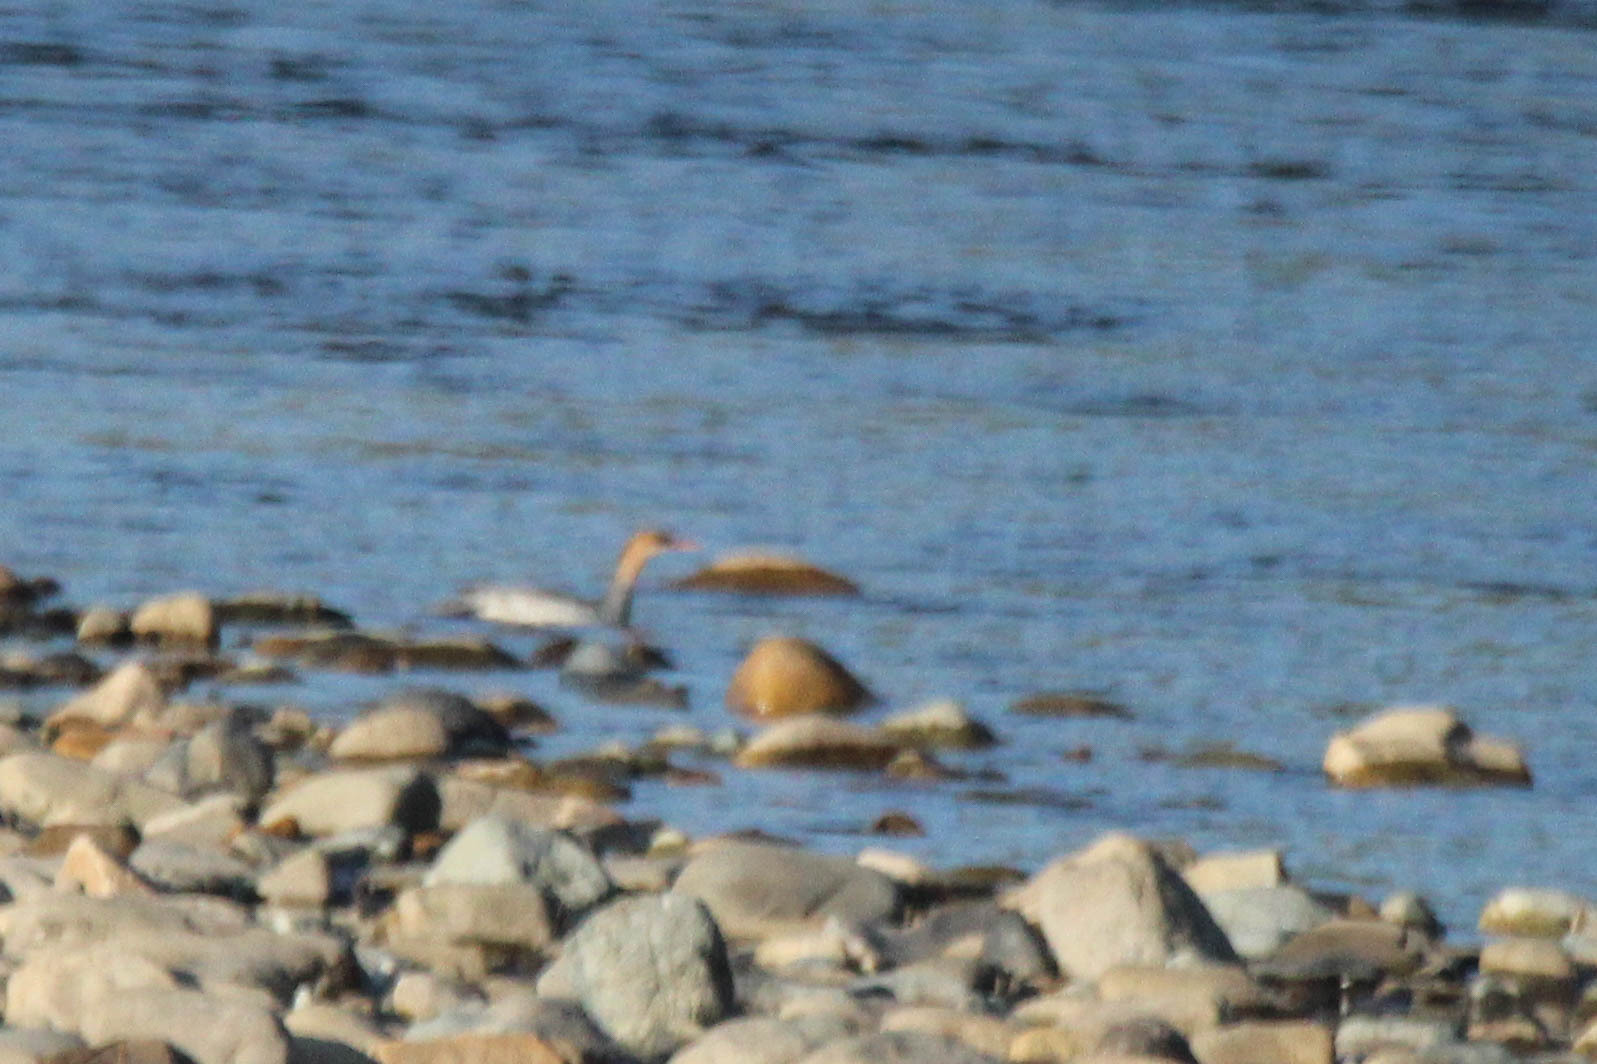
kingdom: Animalia
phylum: Chordata
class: Aves
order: Anseriformes
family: Anatidae
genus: Mergus
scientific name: Mergus squamatus
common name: Scaly-sided merganser
